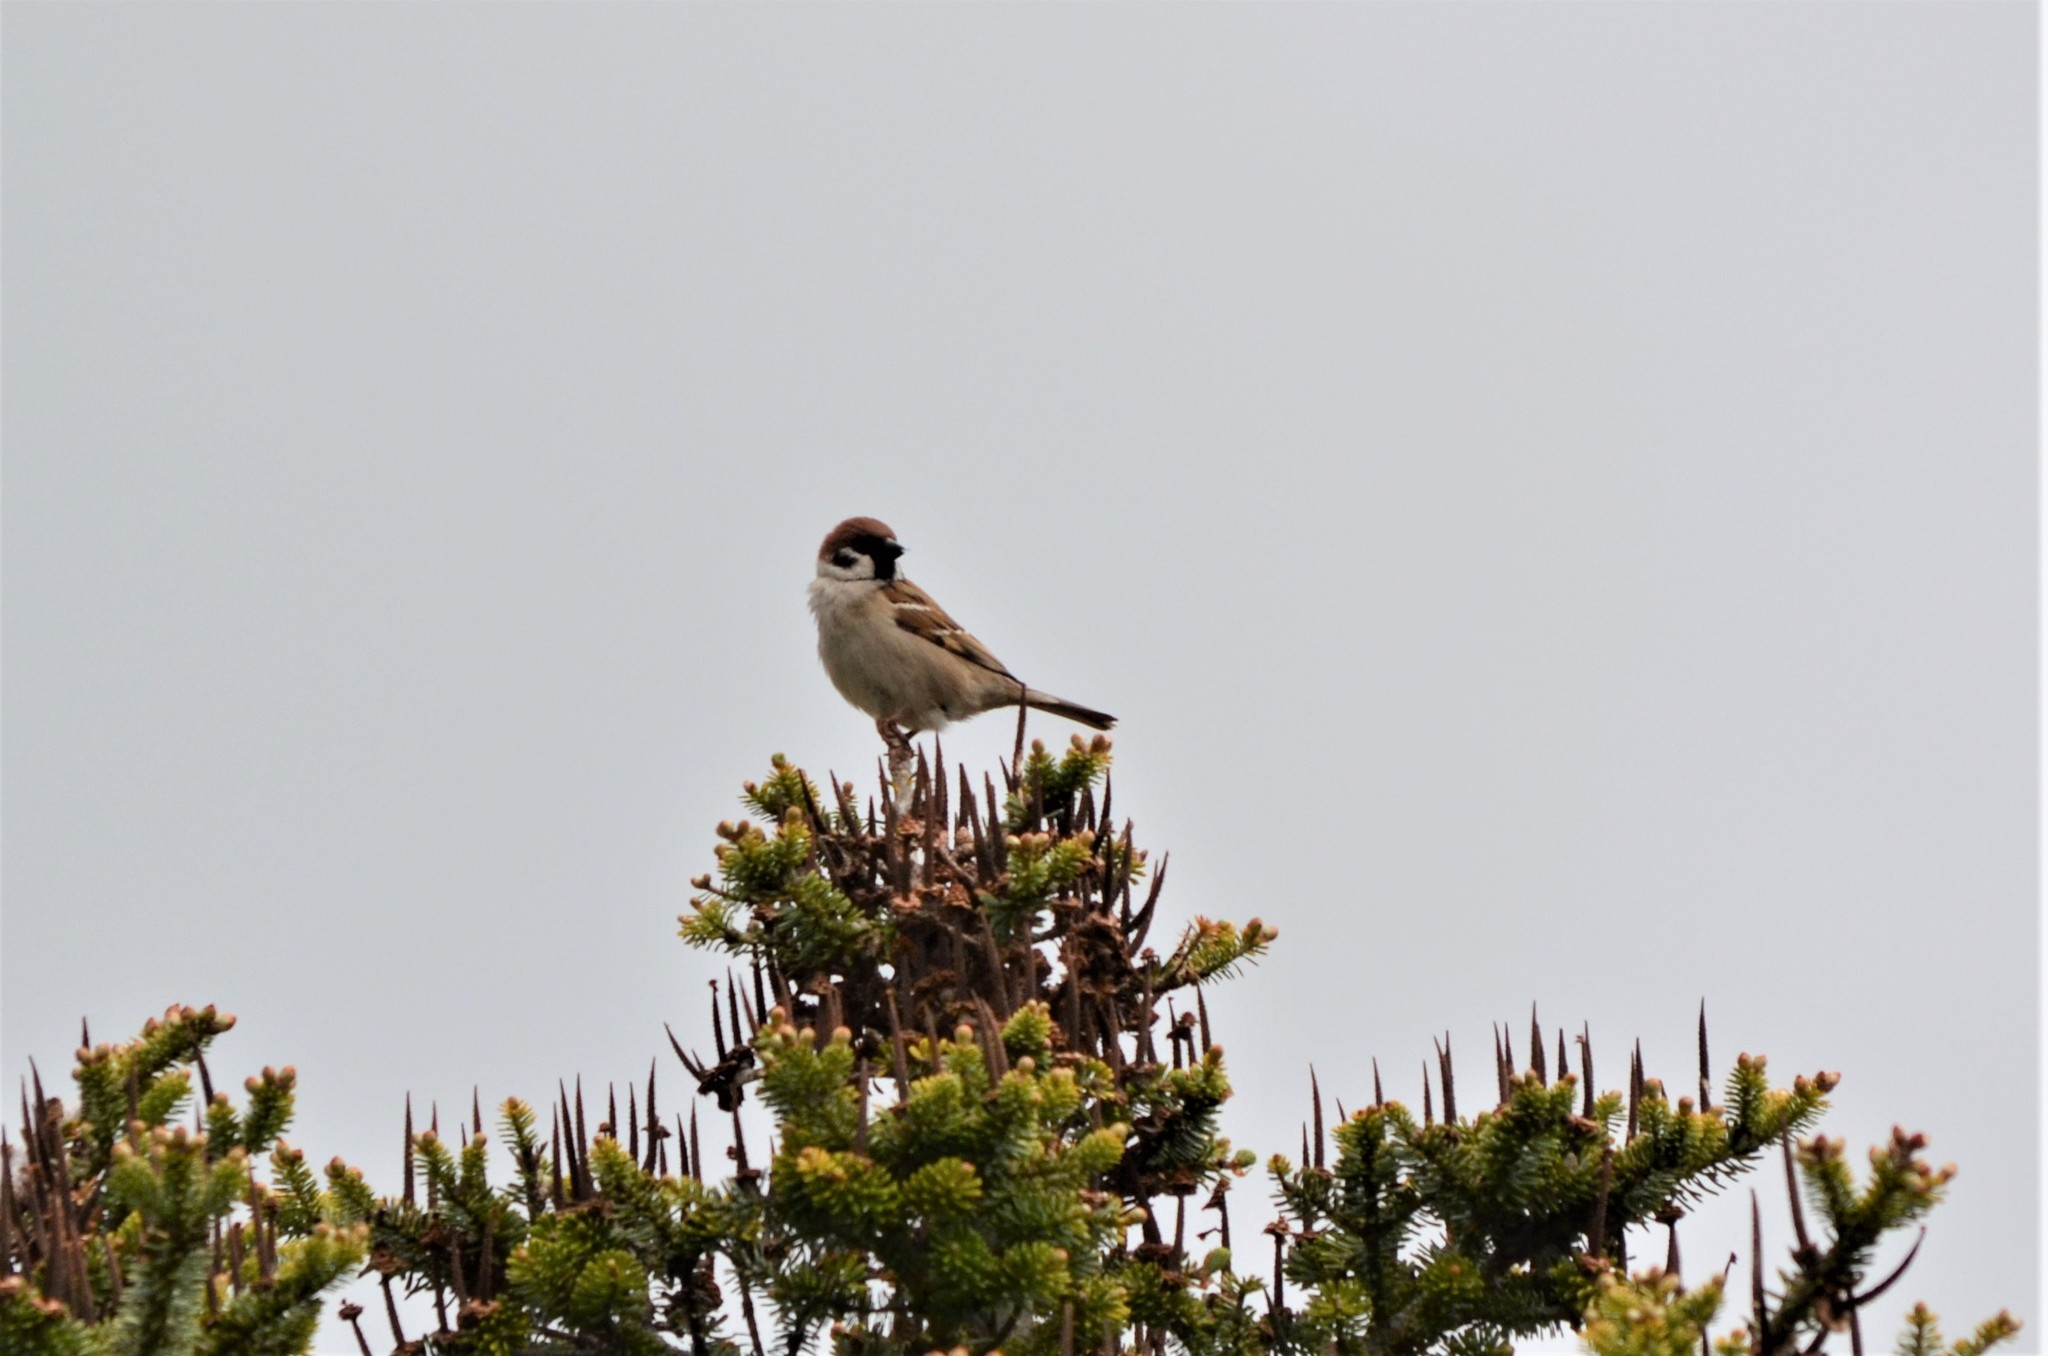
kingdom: Animalia
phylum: Chordata
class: Aves
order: Passeriformes
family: Passeridae
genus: Passer
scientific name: Passer montanus
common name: Eurasian tree sparrow
